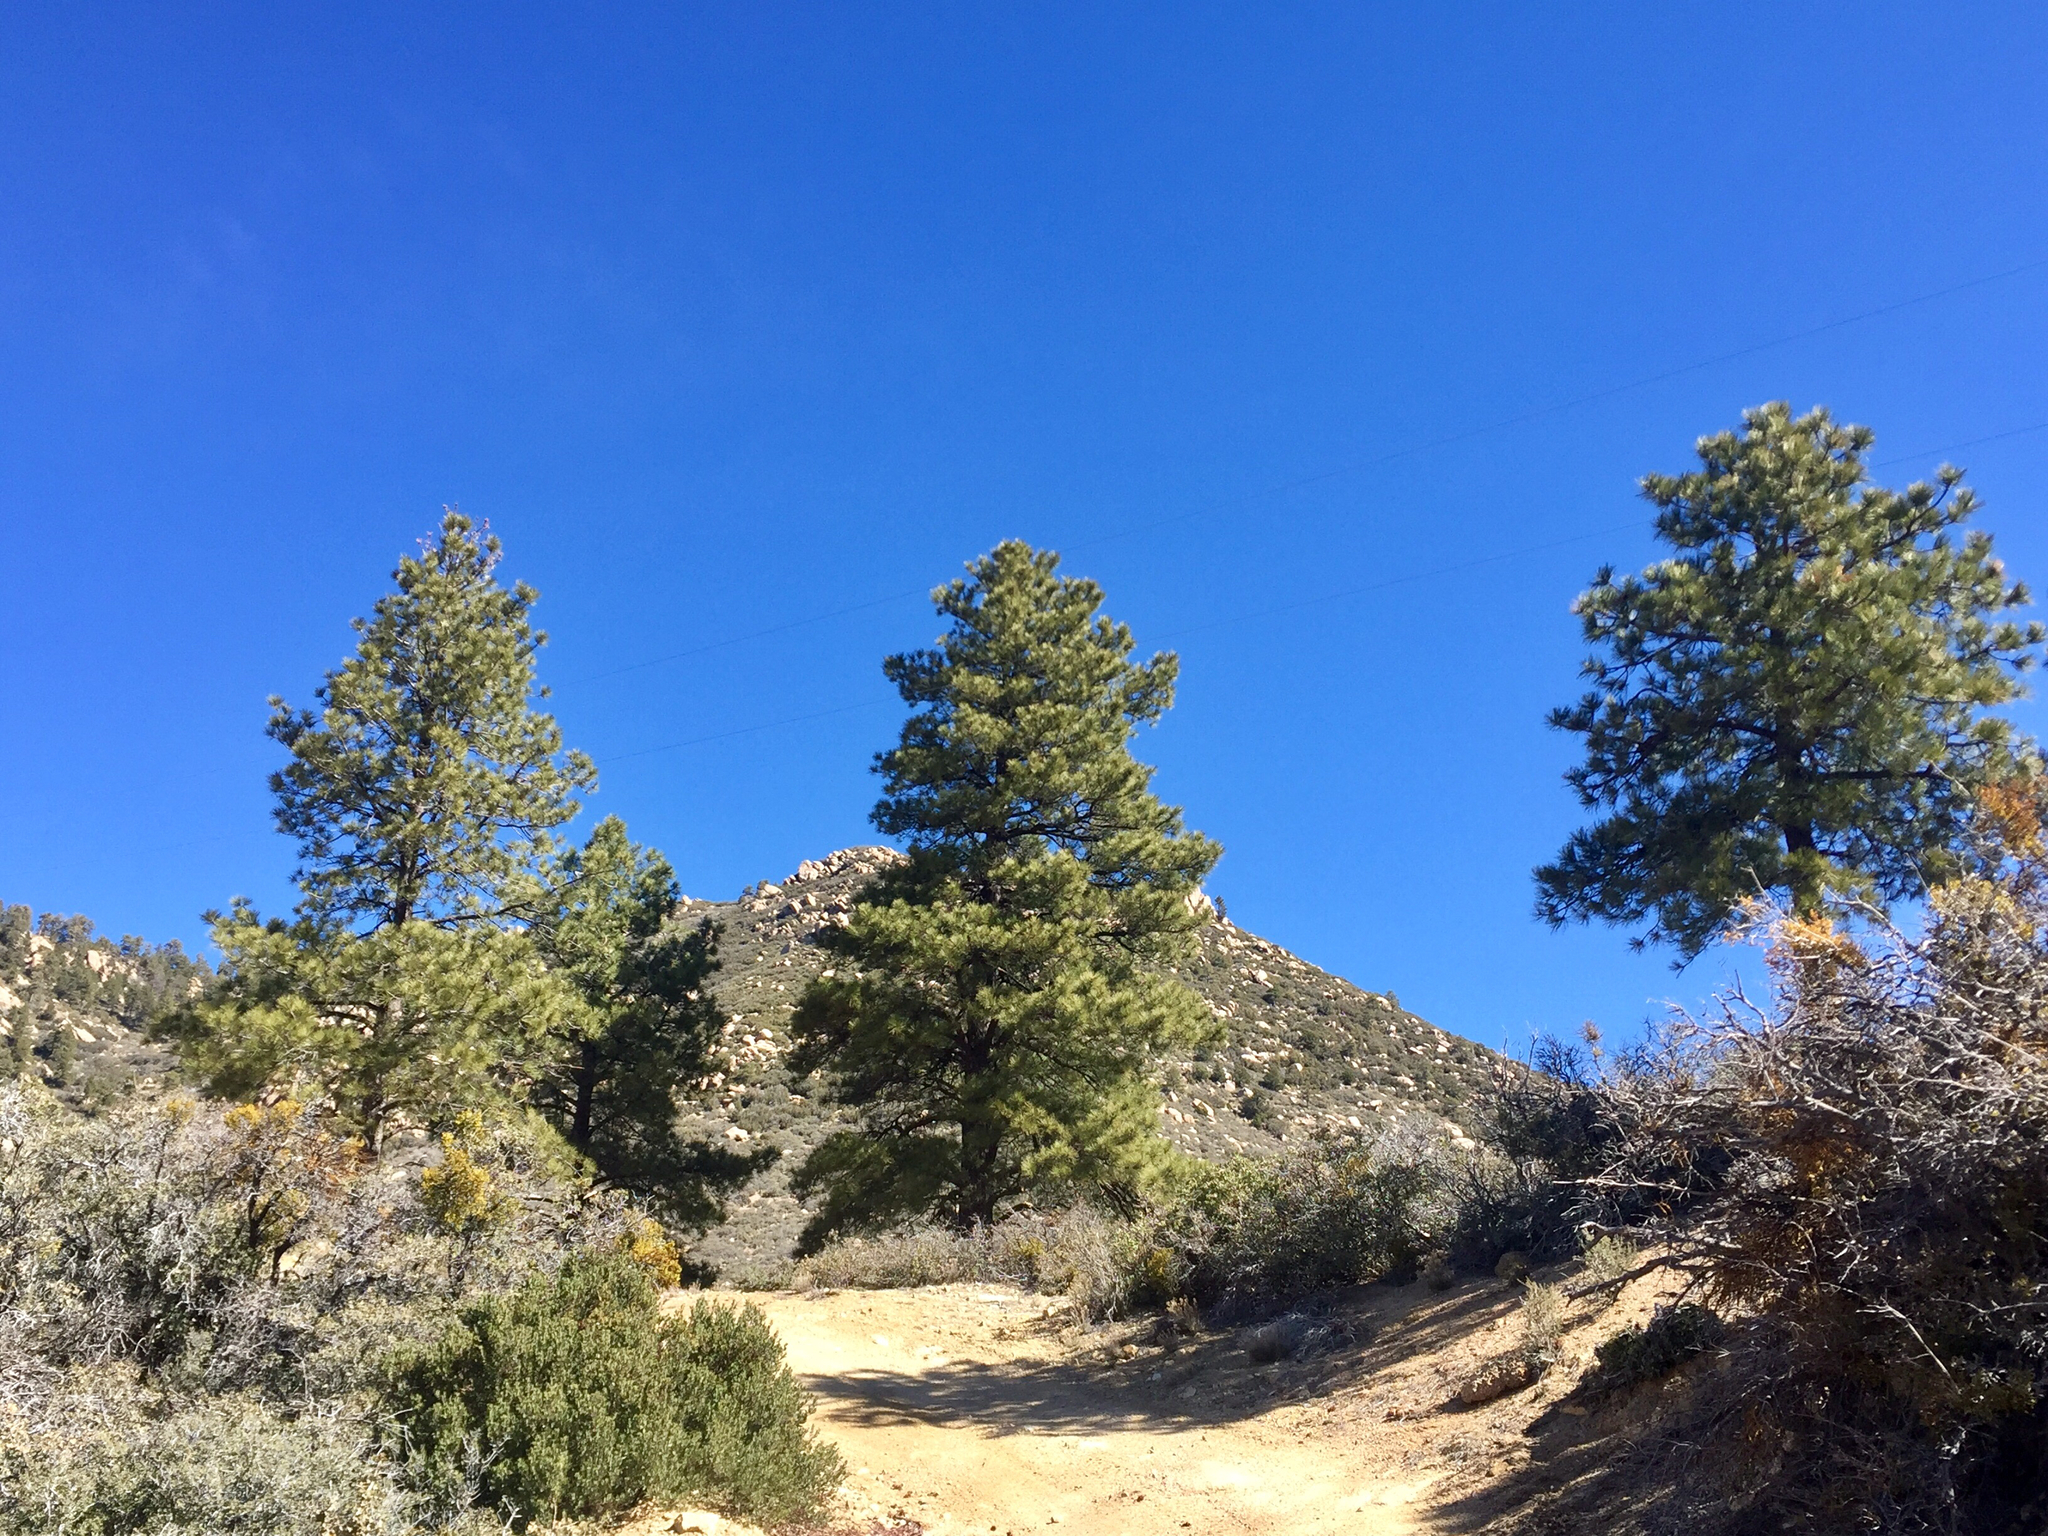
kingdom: Plantae
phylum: Tracheophyta
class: Pinopsida
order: Pinales
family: Pinaceae
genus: Pinus
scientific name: Pinus ponderosa
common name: Western yellow-pine
